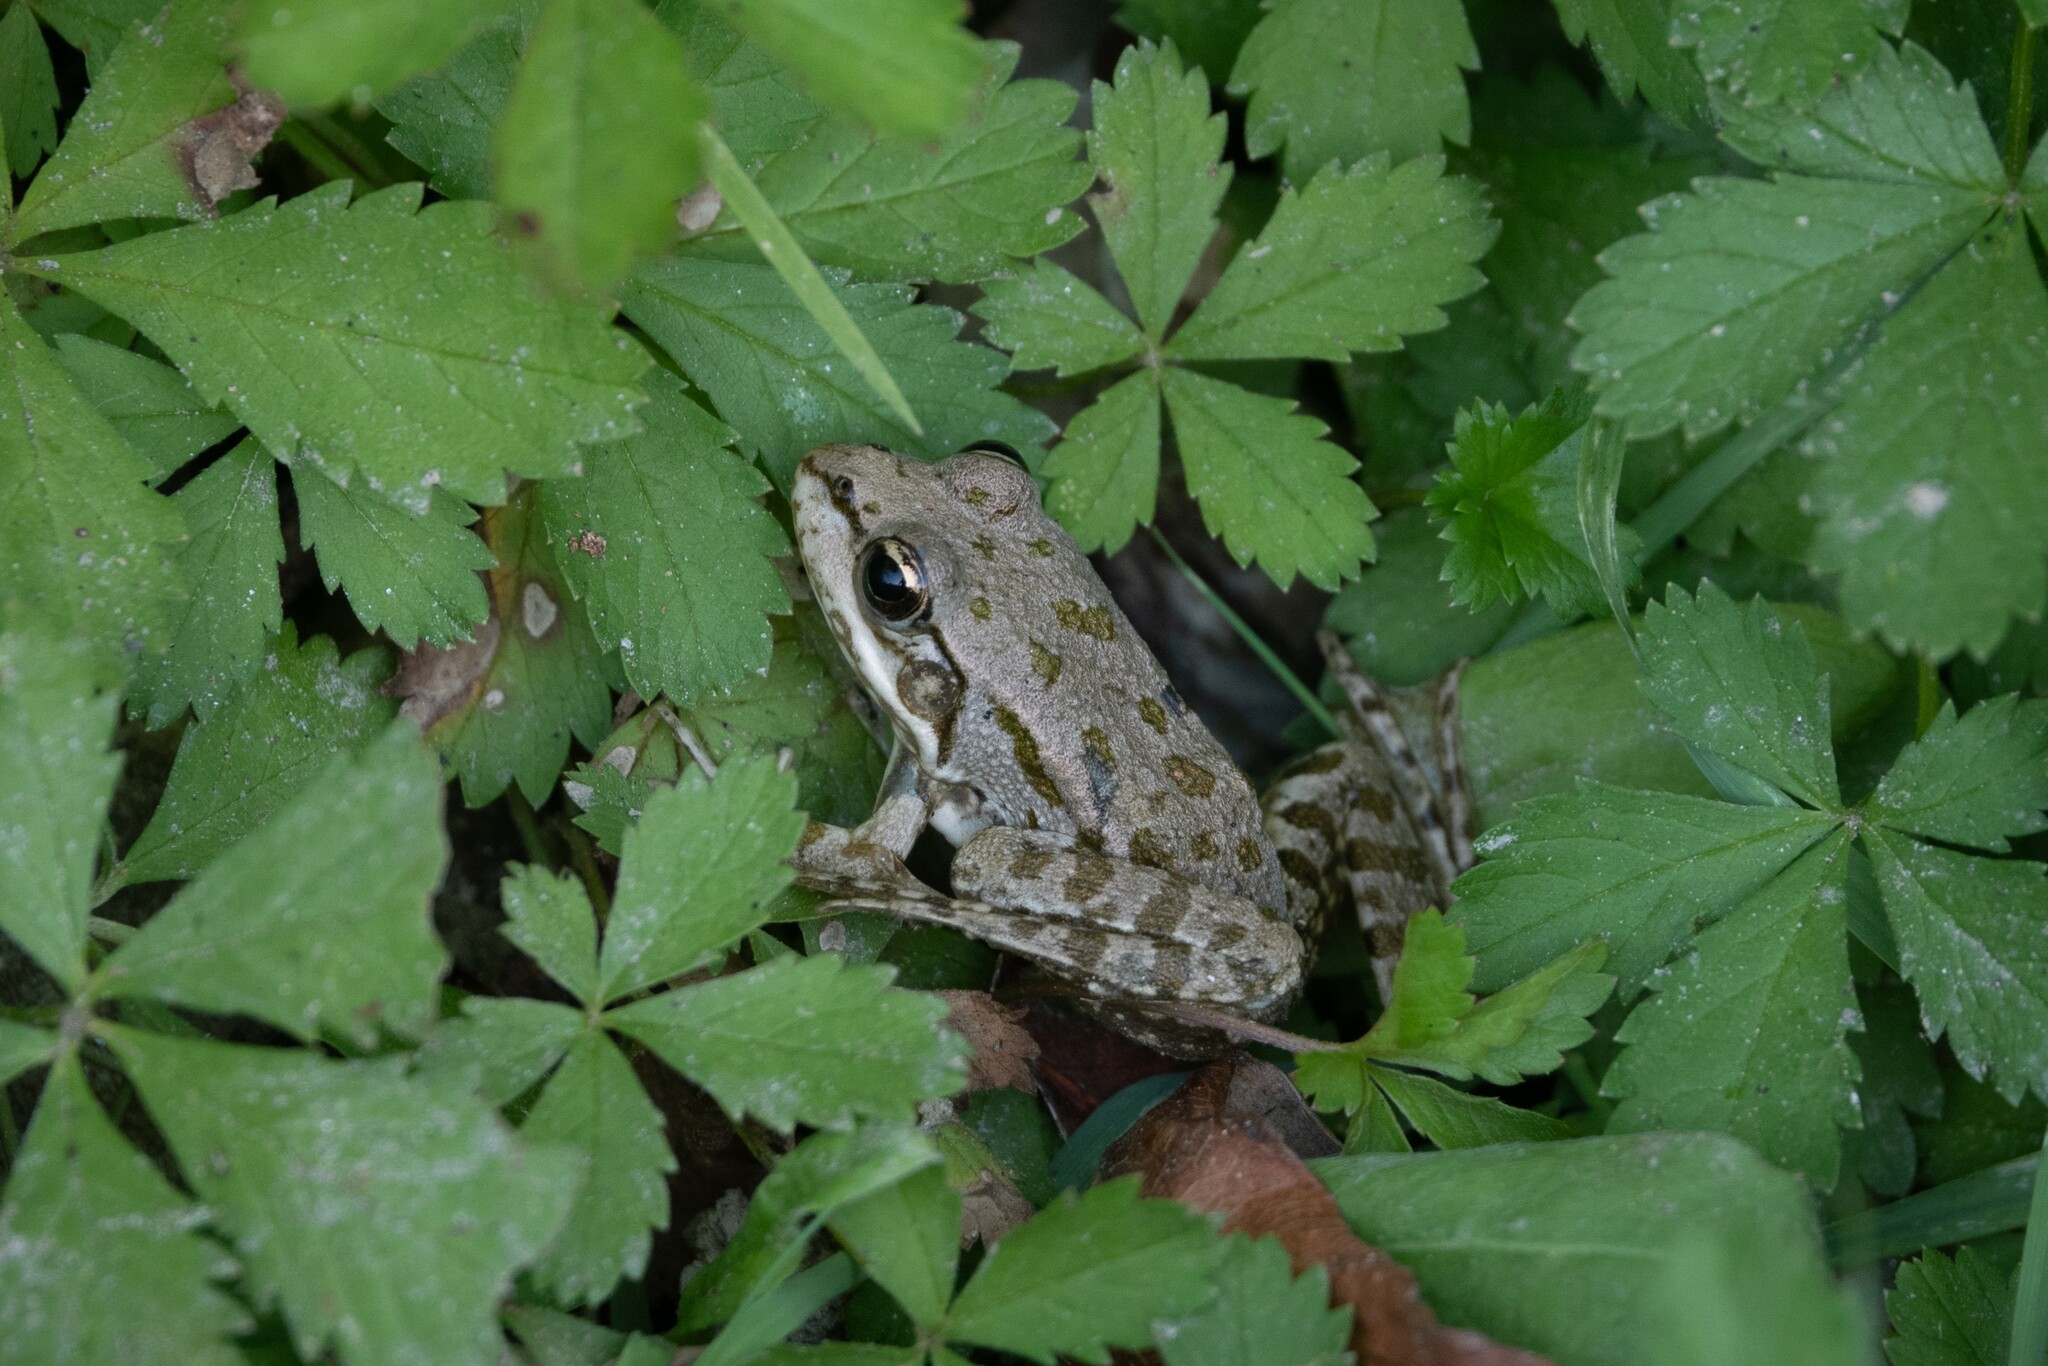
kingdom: Animalia
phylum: Chordata
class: Amphibia
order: Anura
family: Ranidae
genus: Pelophylax
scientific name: Pelophylax ridibundus
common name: Marsh frog
